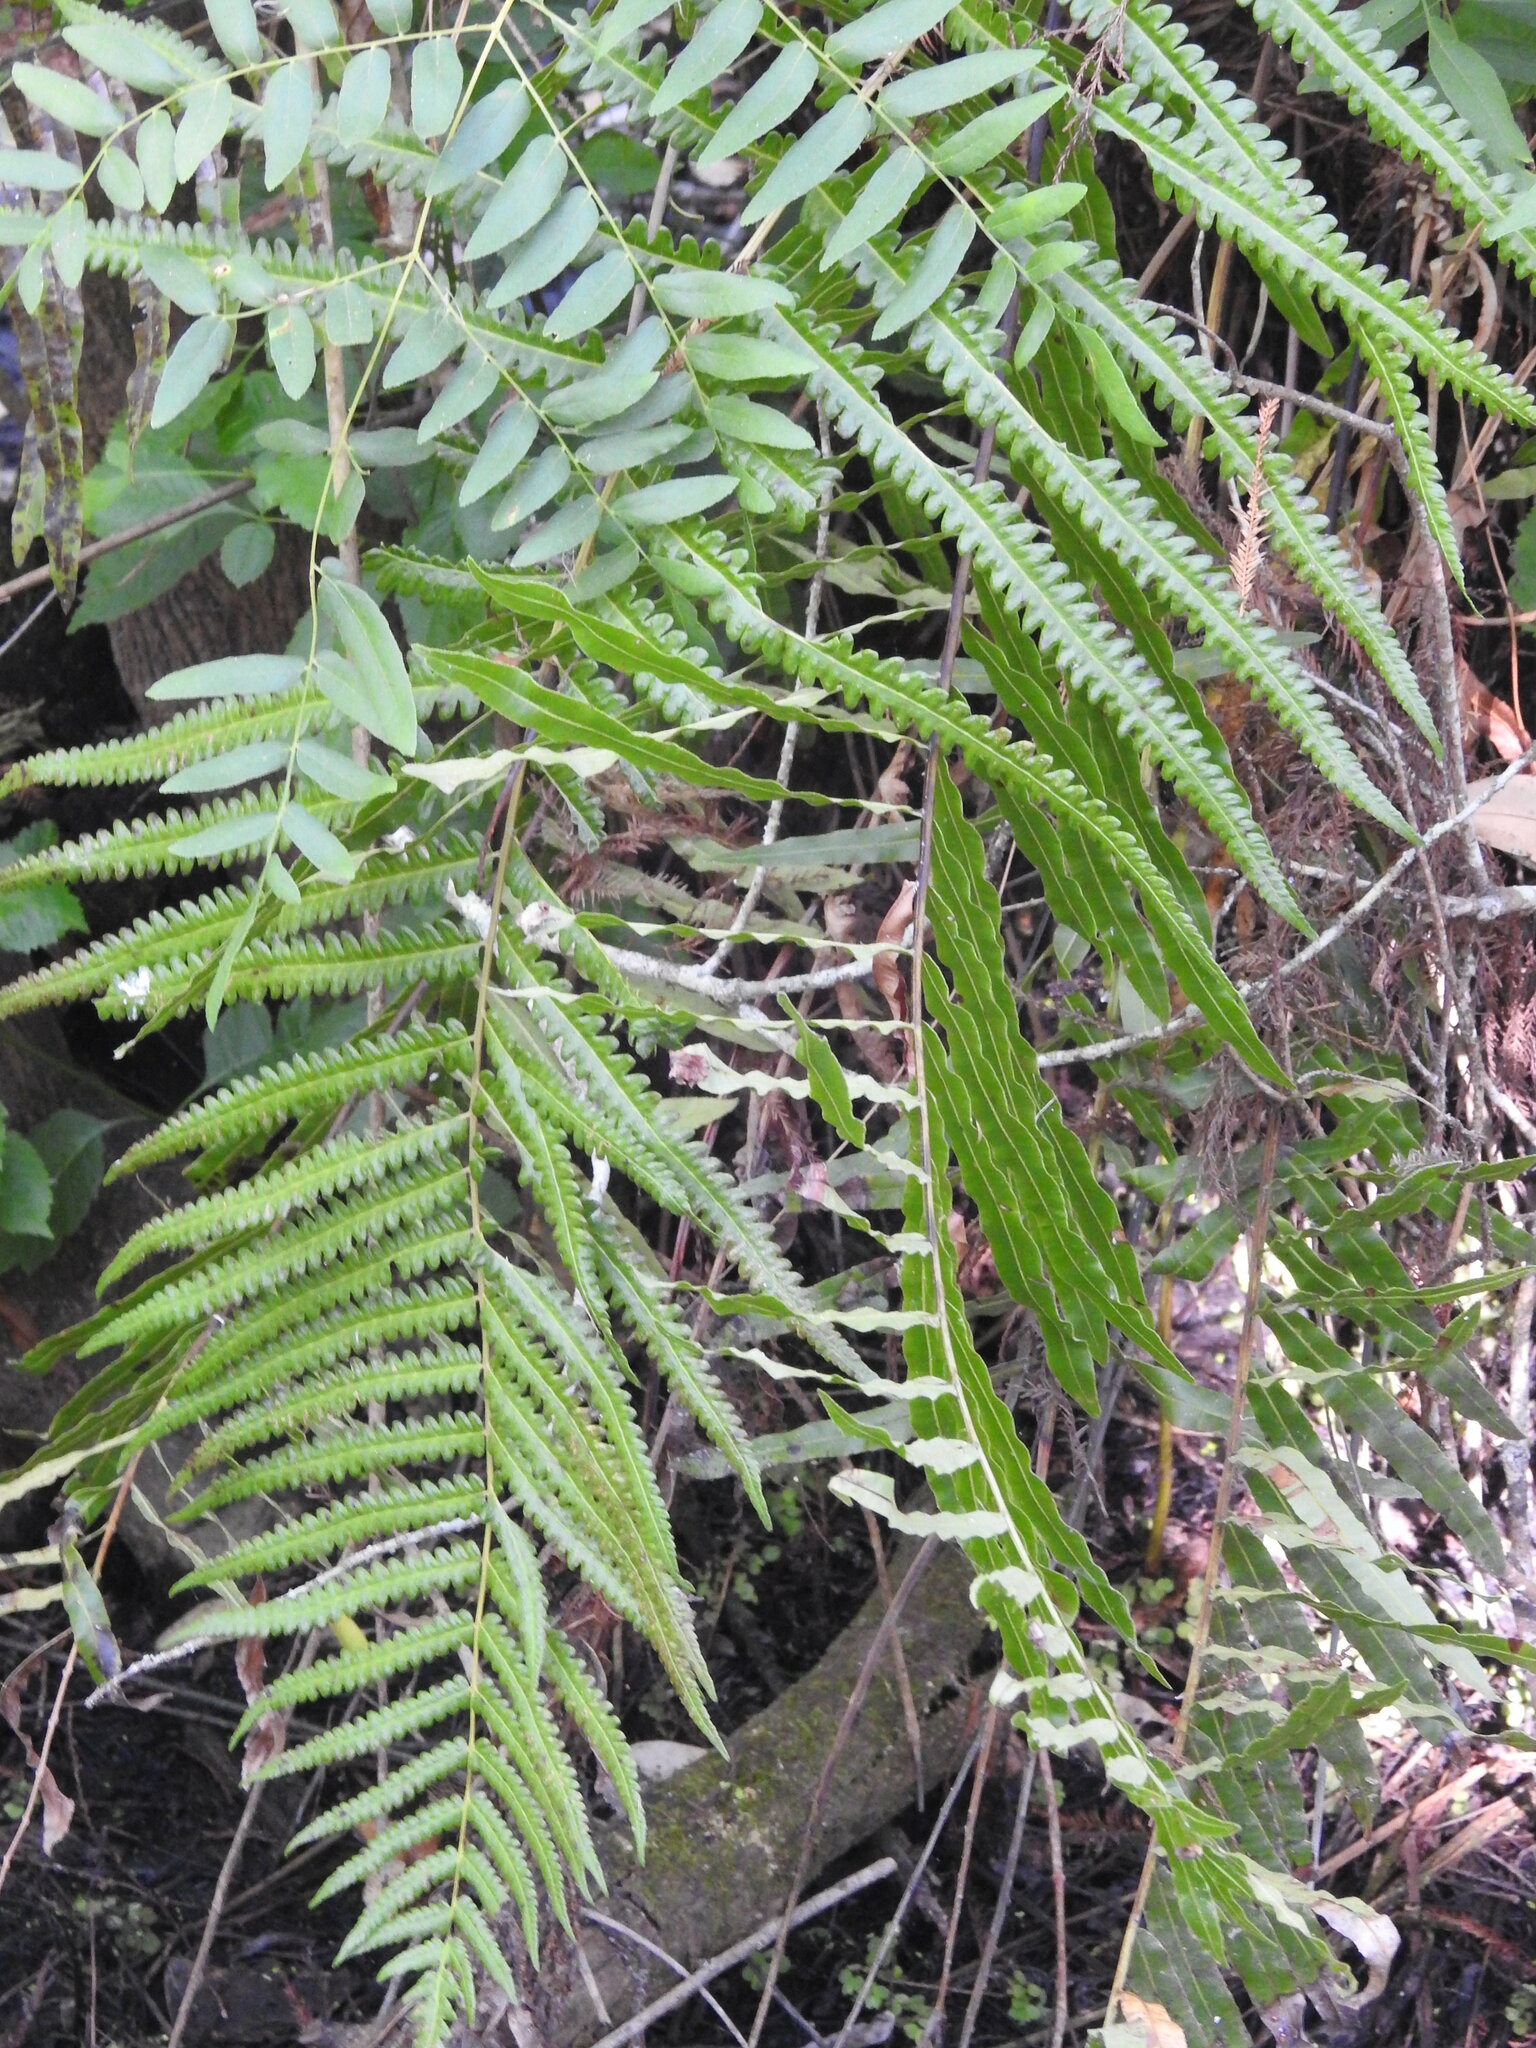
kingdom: Plantae
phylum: Tracheophyta
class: Polypodiopsida
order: Polypodiales
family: Thelypteridaceae
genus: Cyclosorus
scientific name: Cyclosorus interruptus
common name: Neke fern
